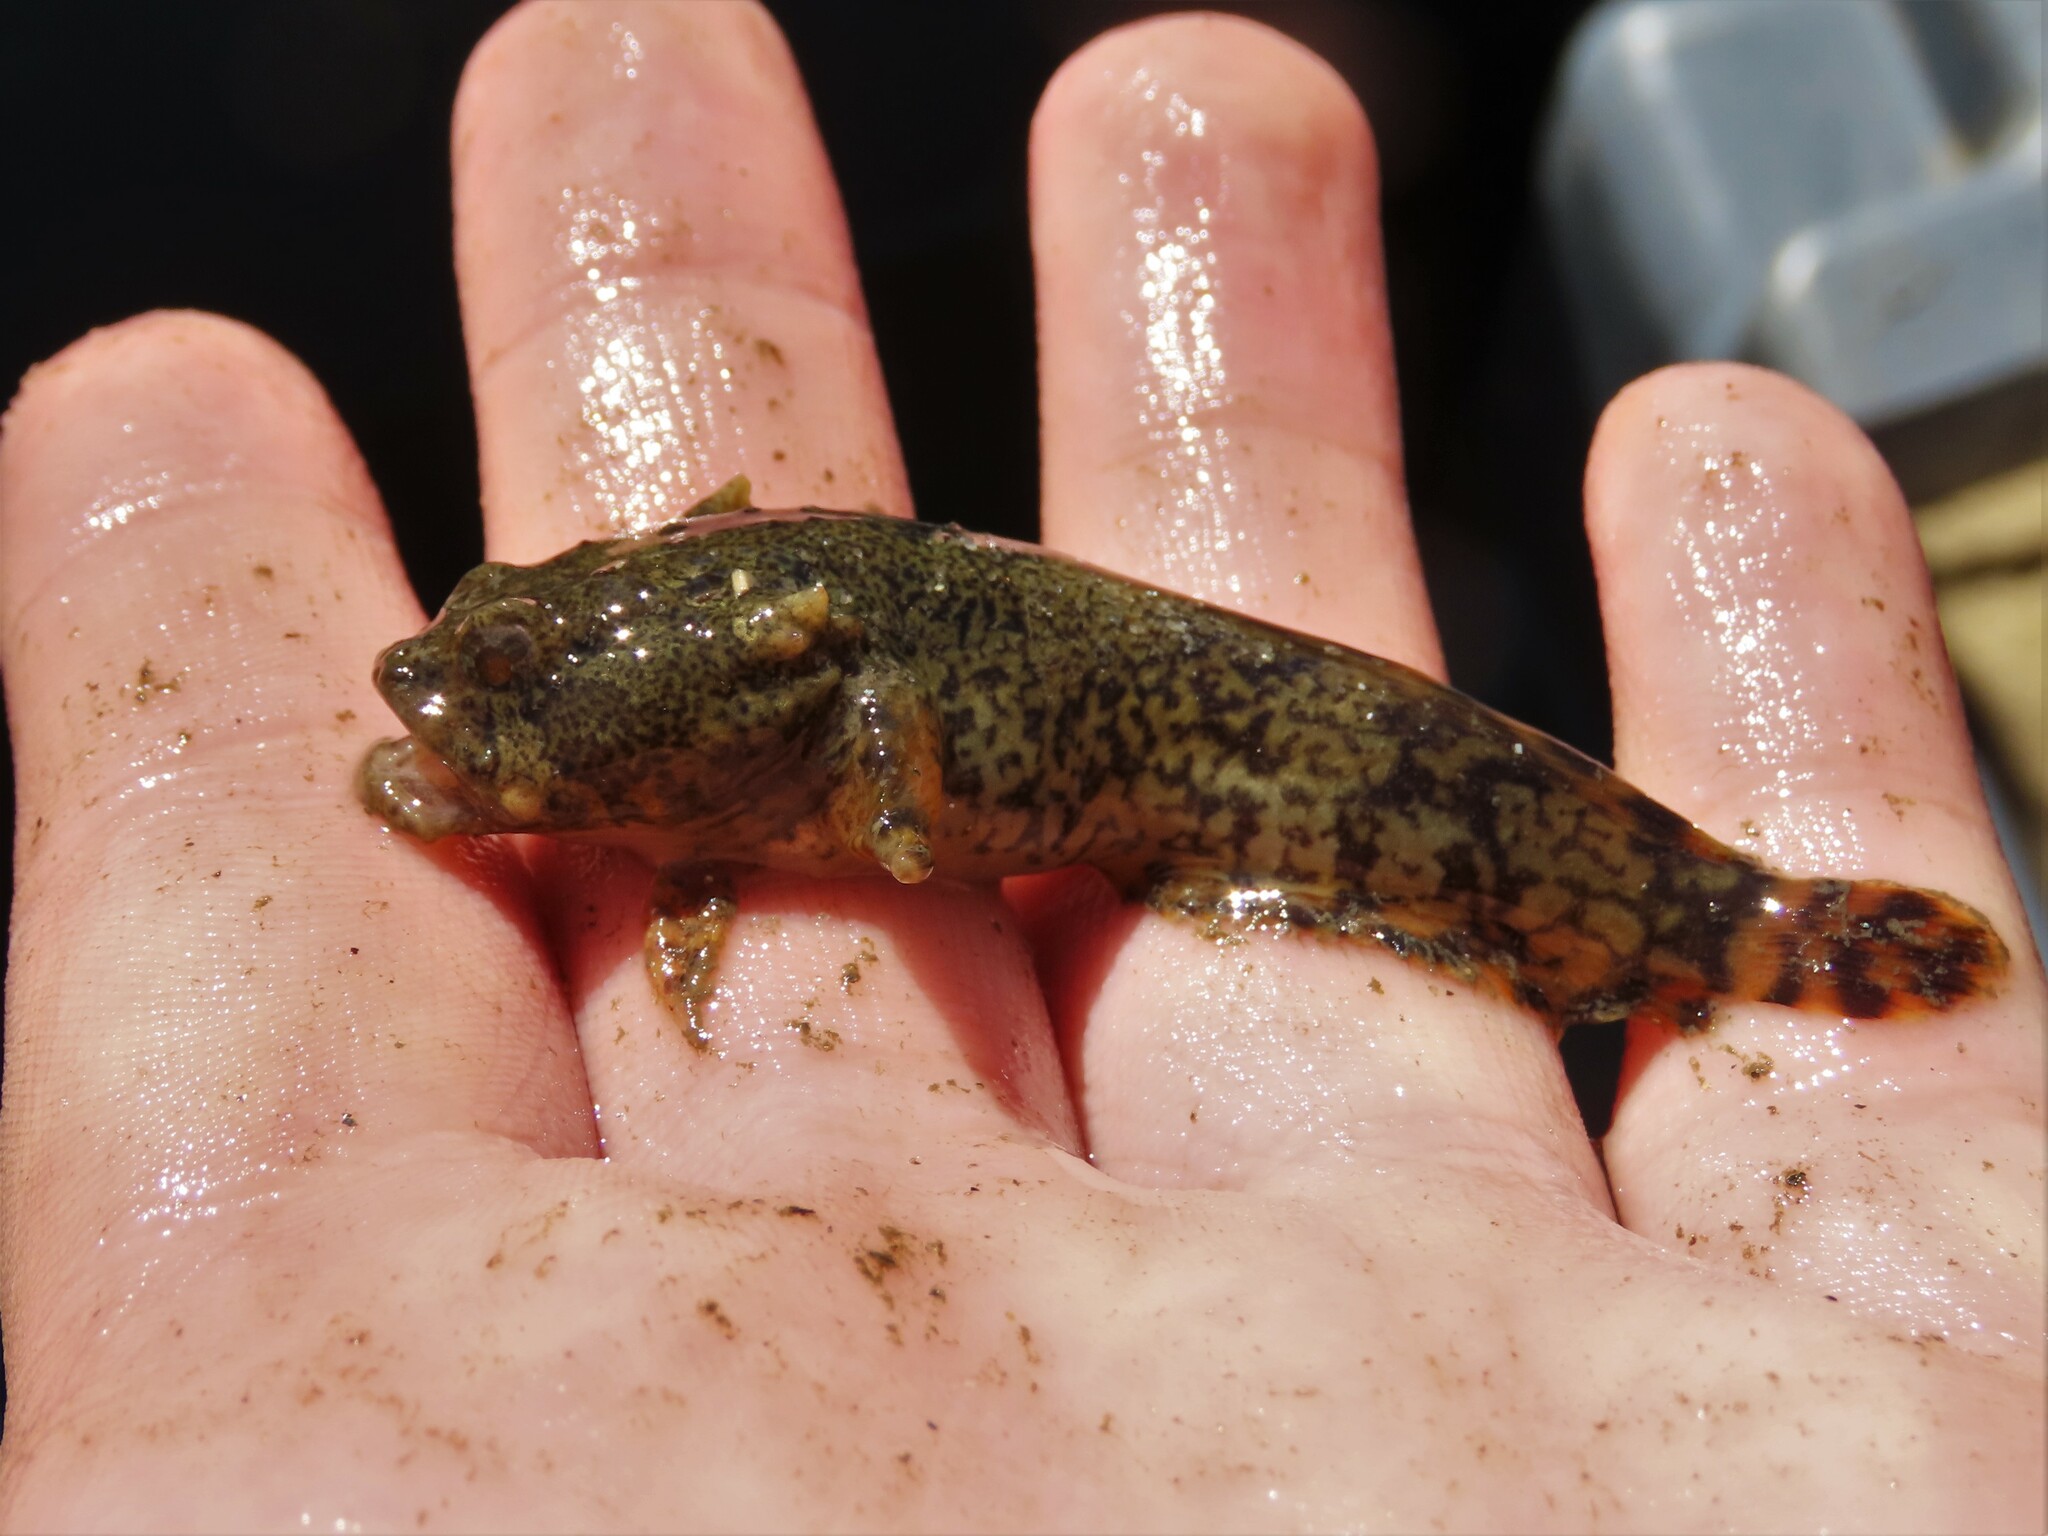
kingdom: Animalia
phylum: Chordata
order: Batrachoidiformes
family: Batrachoididae
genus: Opsanus
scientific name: Opsanus tau
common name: Oyster toadfish
